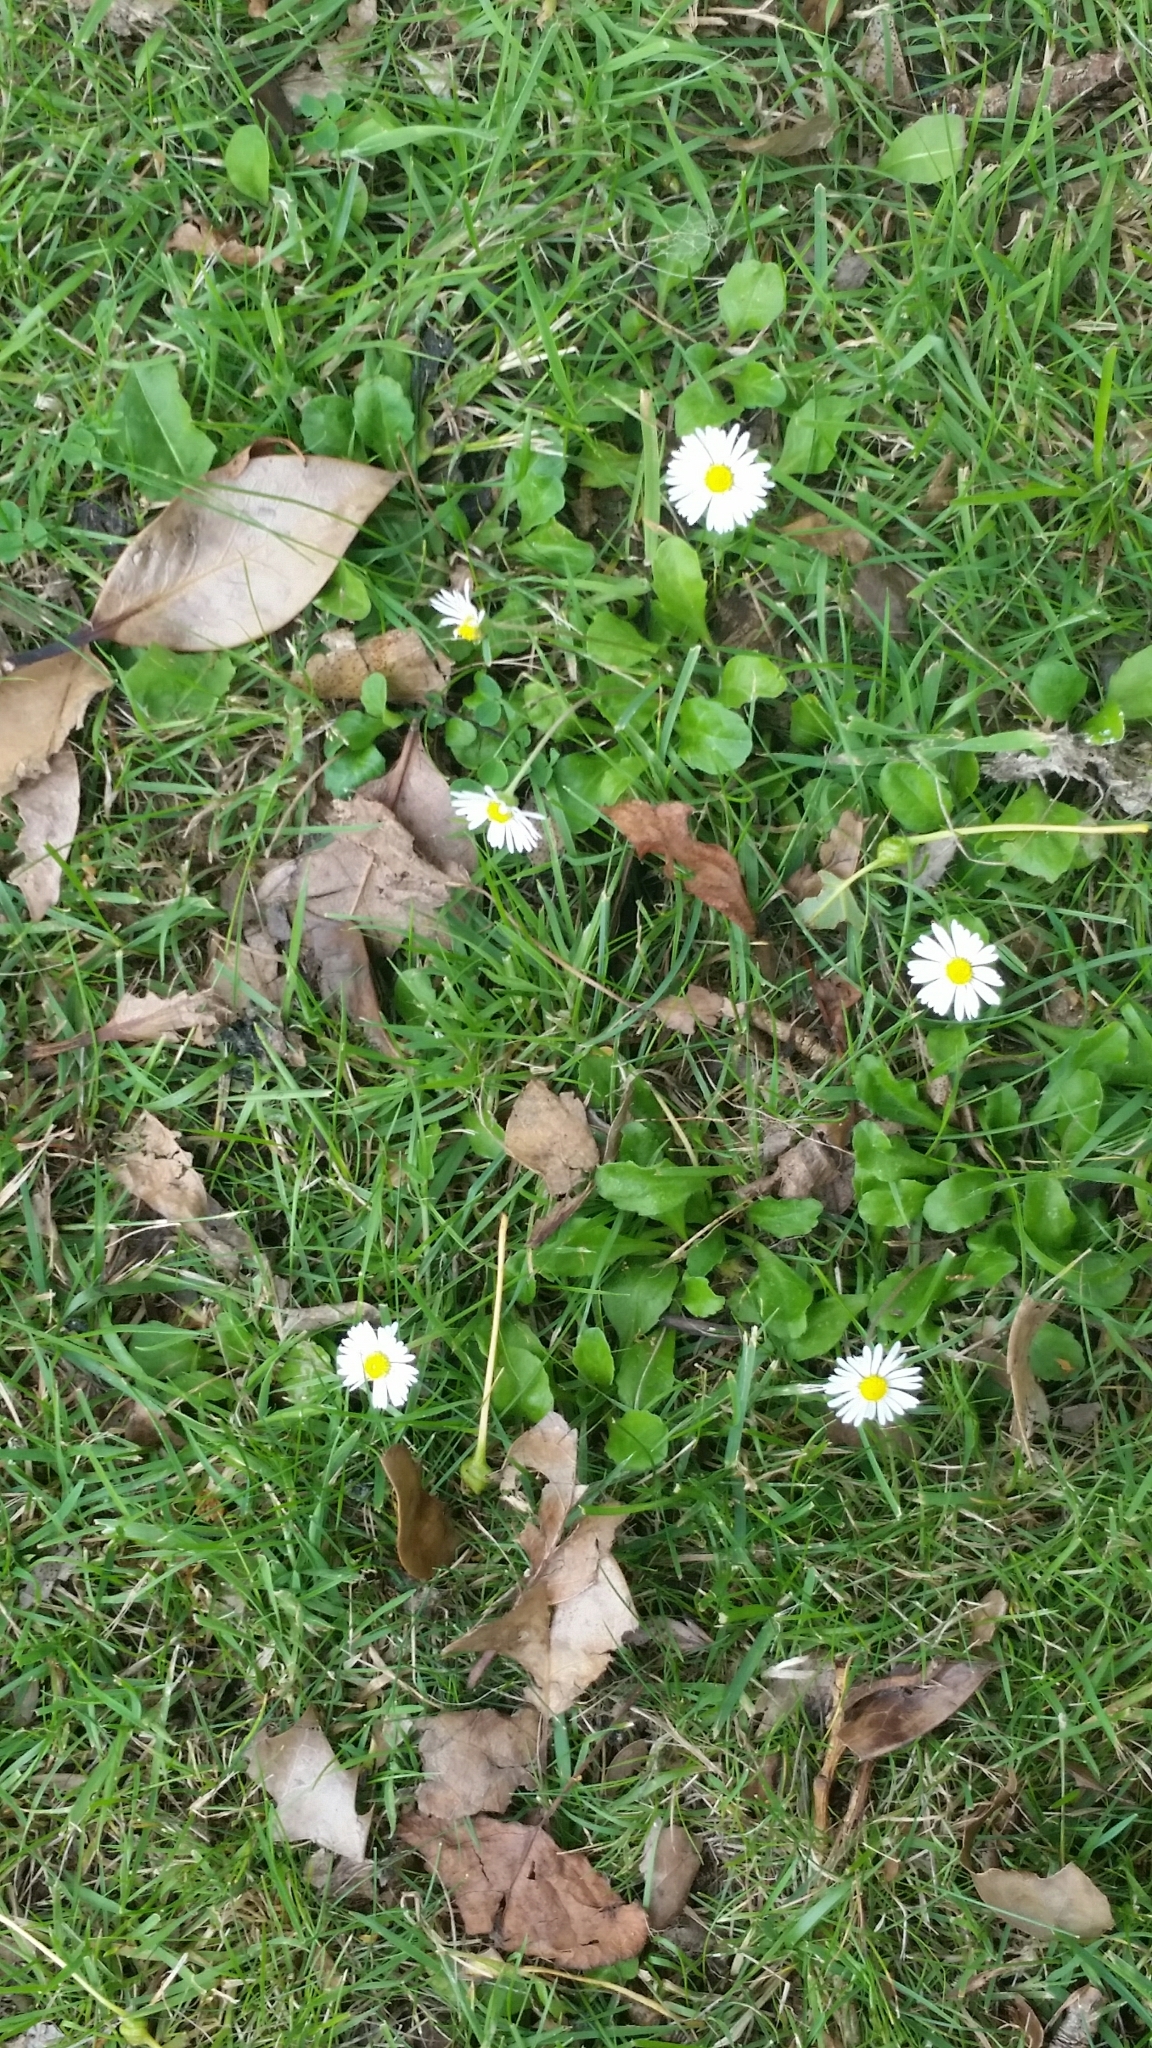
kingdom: Plantae
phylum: Tracheophyta
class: Magnoliopsida
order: Asterales
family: Asteraceae
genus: Bellis
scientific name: Bellis perennis
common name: Lawndaisy
